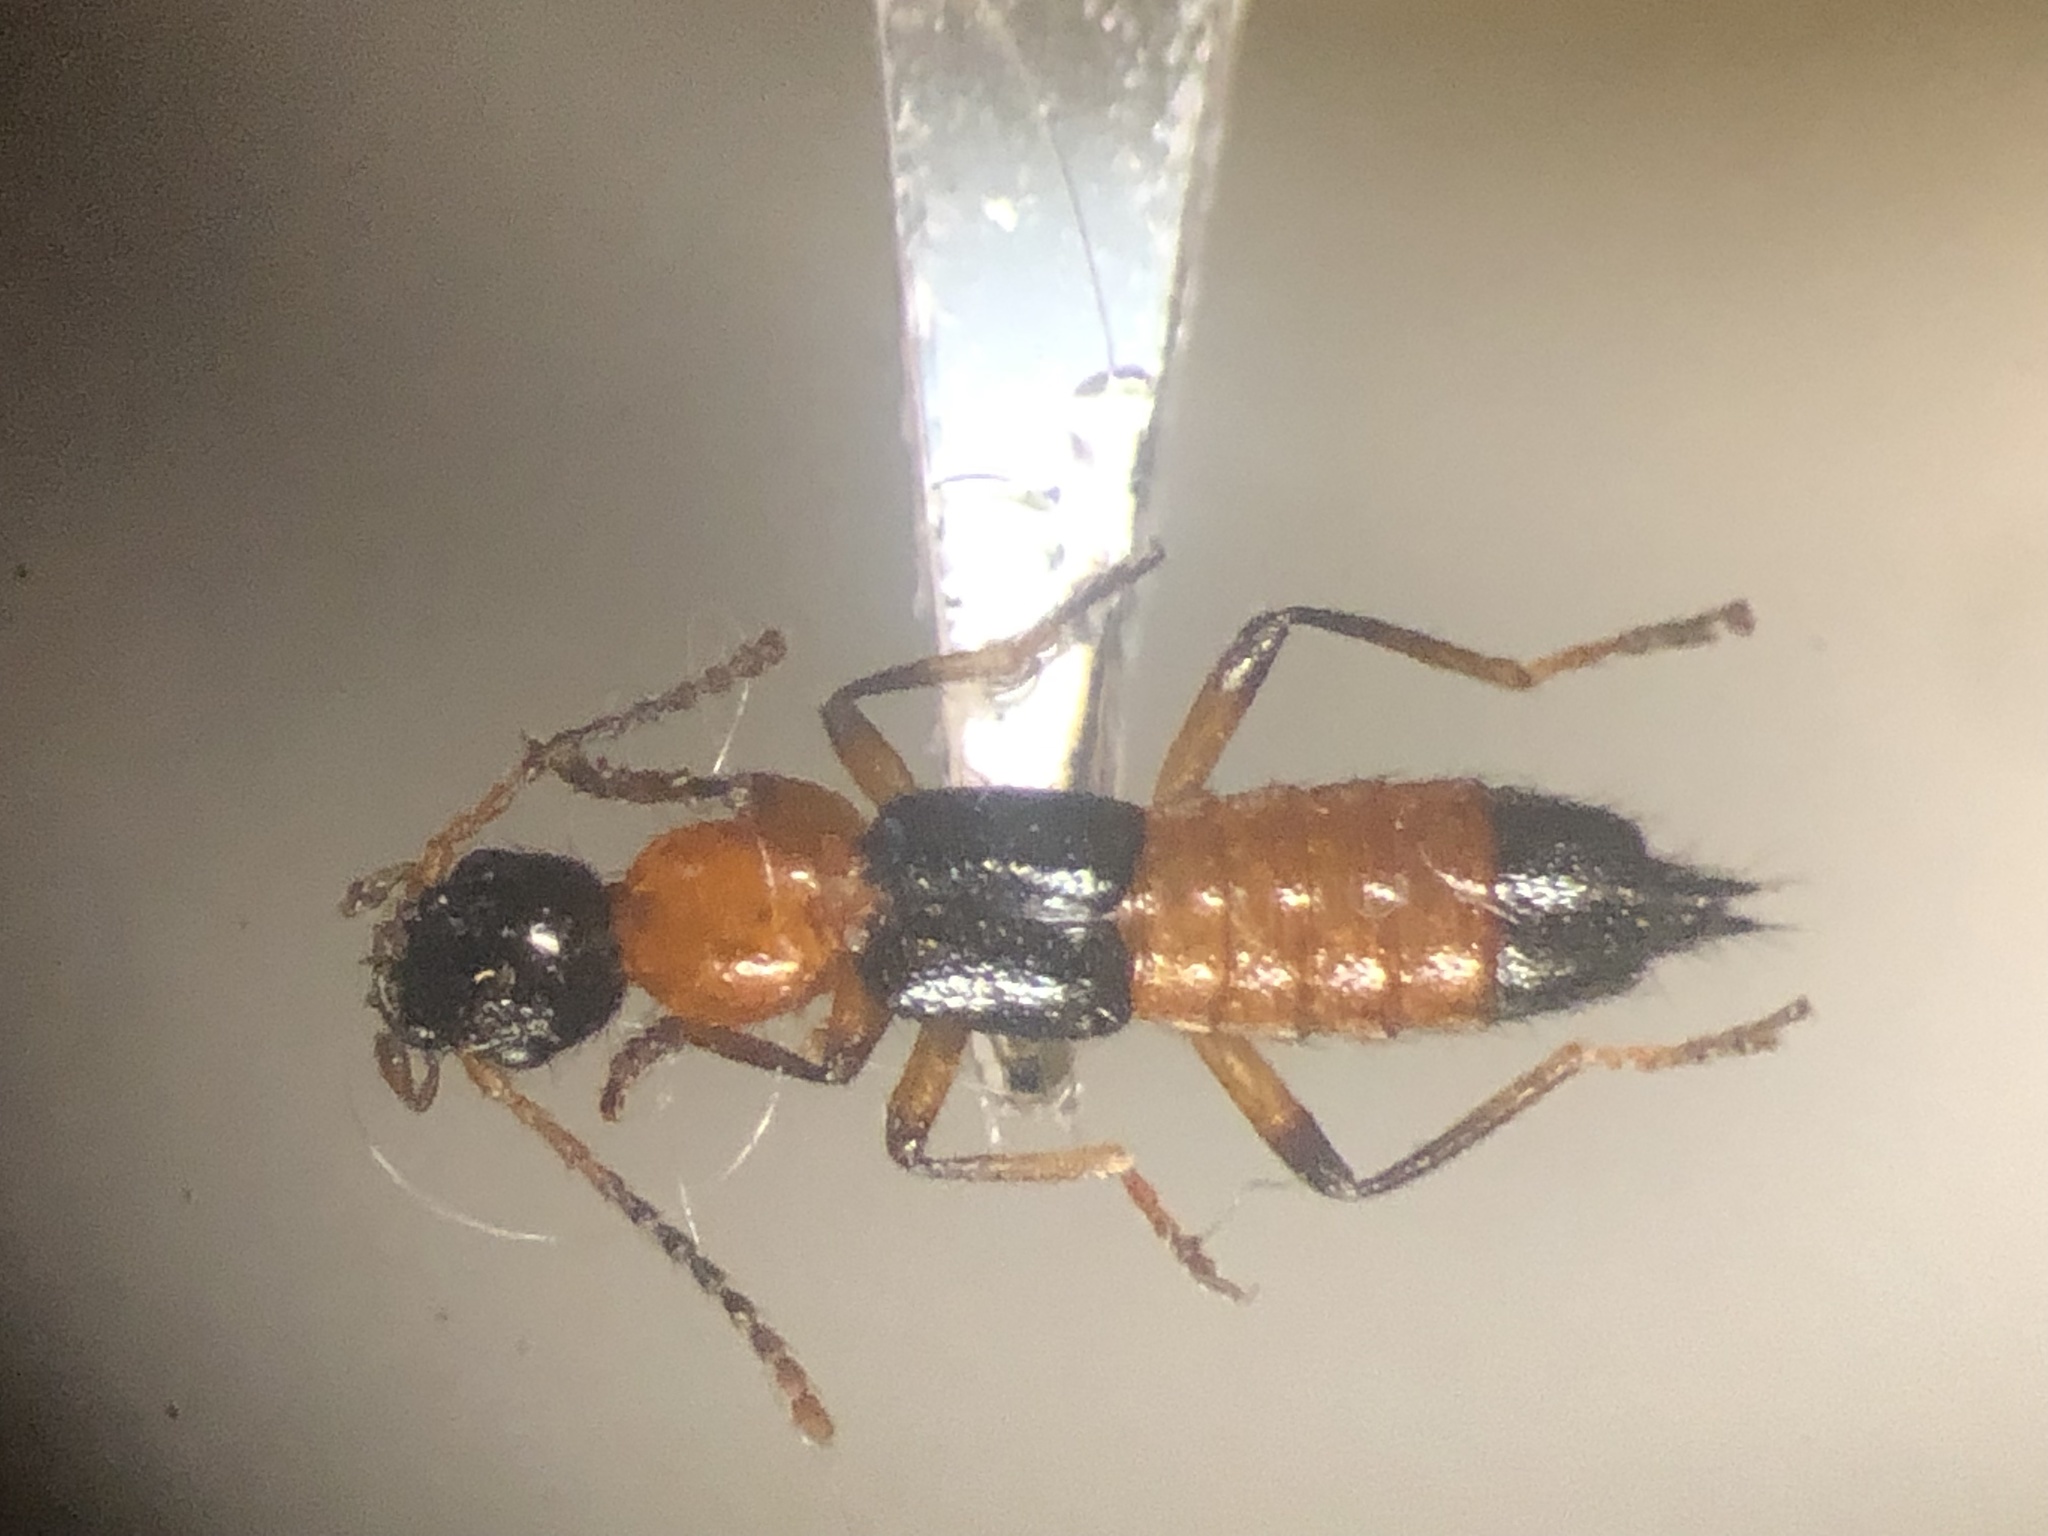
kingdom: Animalia
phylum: Arthropoda
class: Insecta
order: Coleoptera
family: Staphylinidae
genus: Paederus
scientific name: Paederus littorarius
